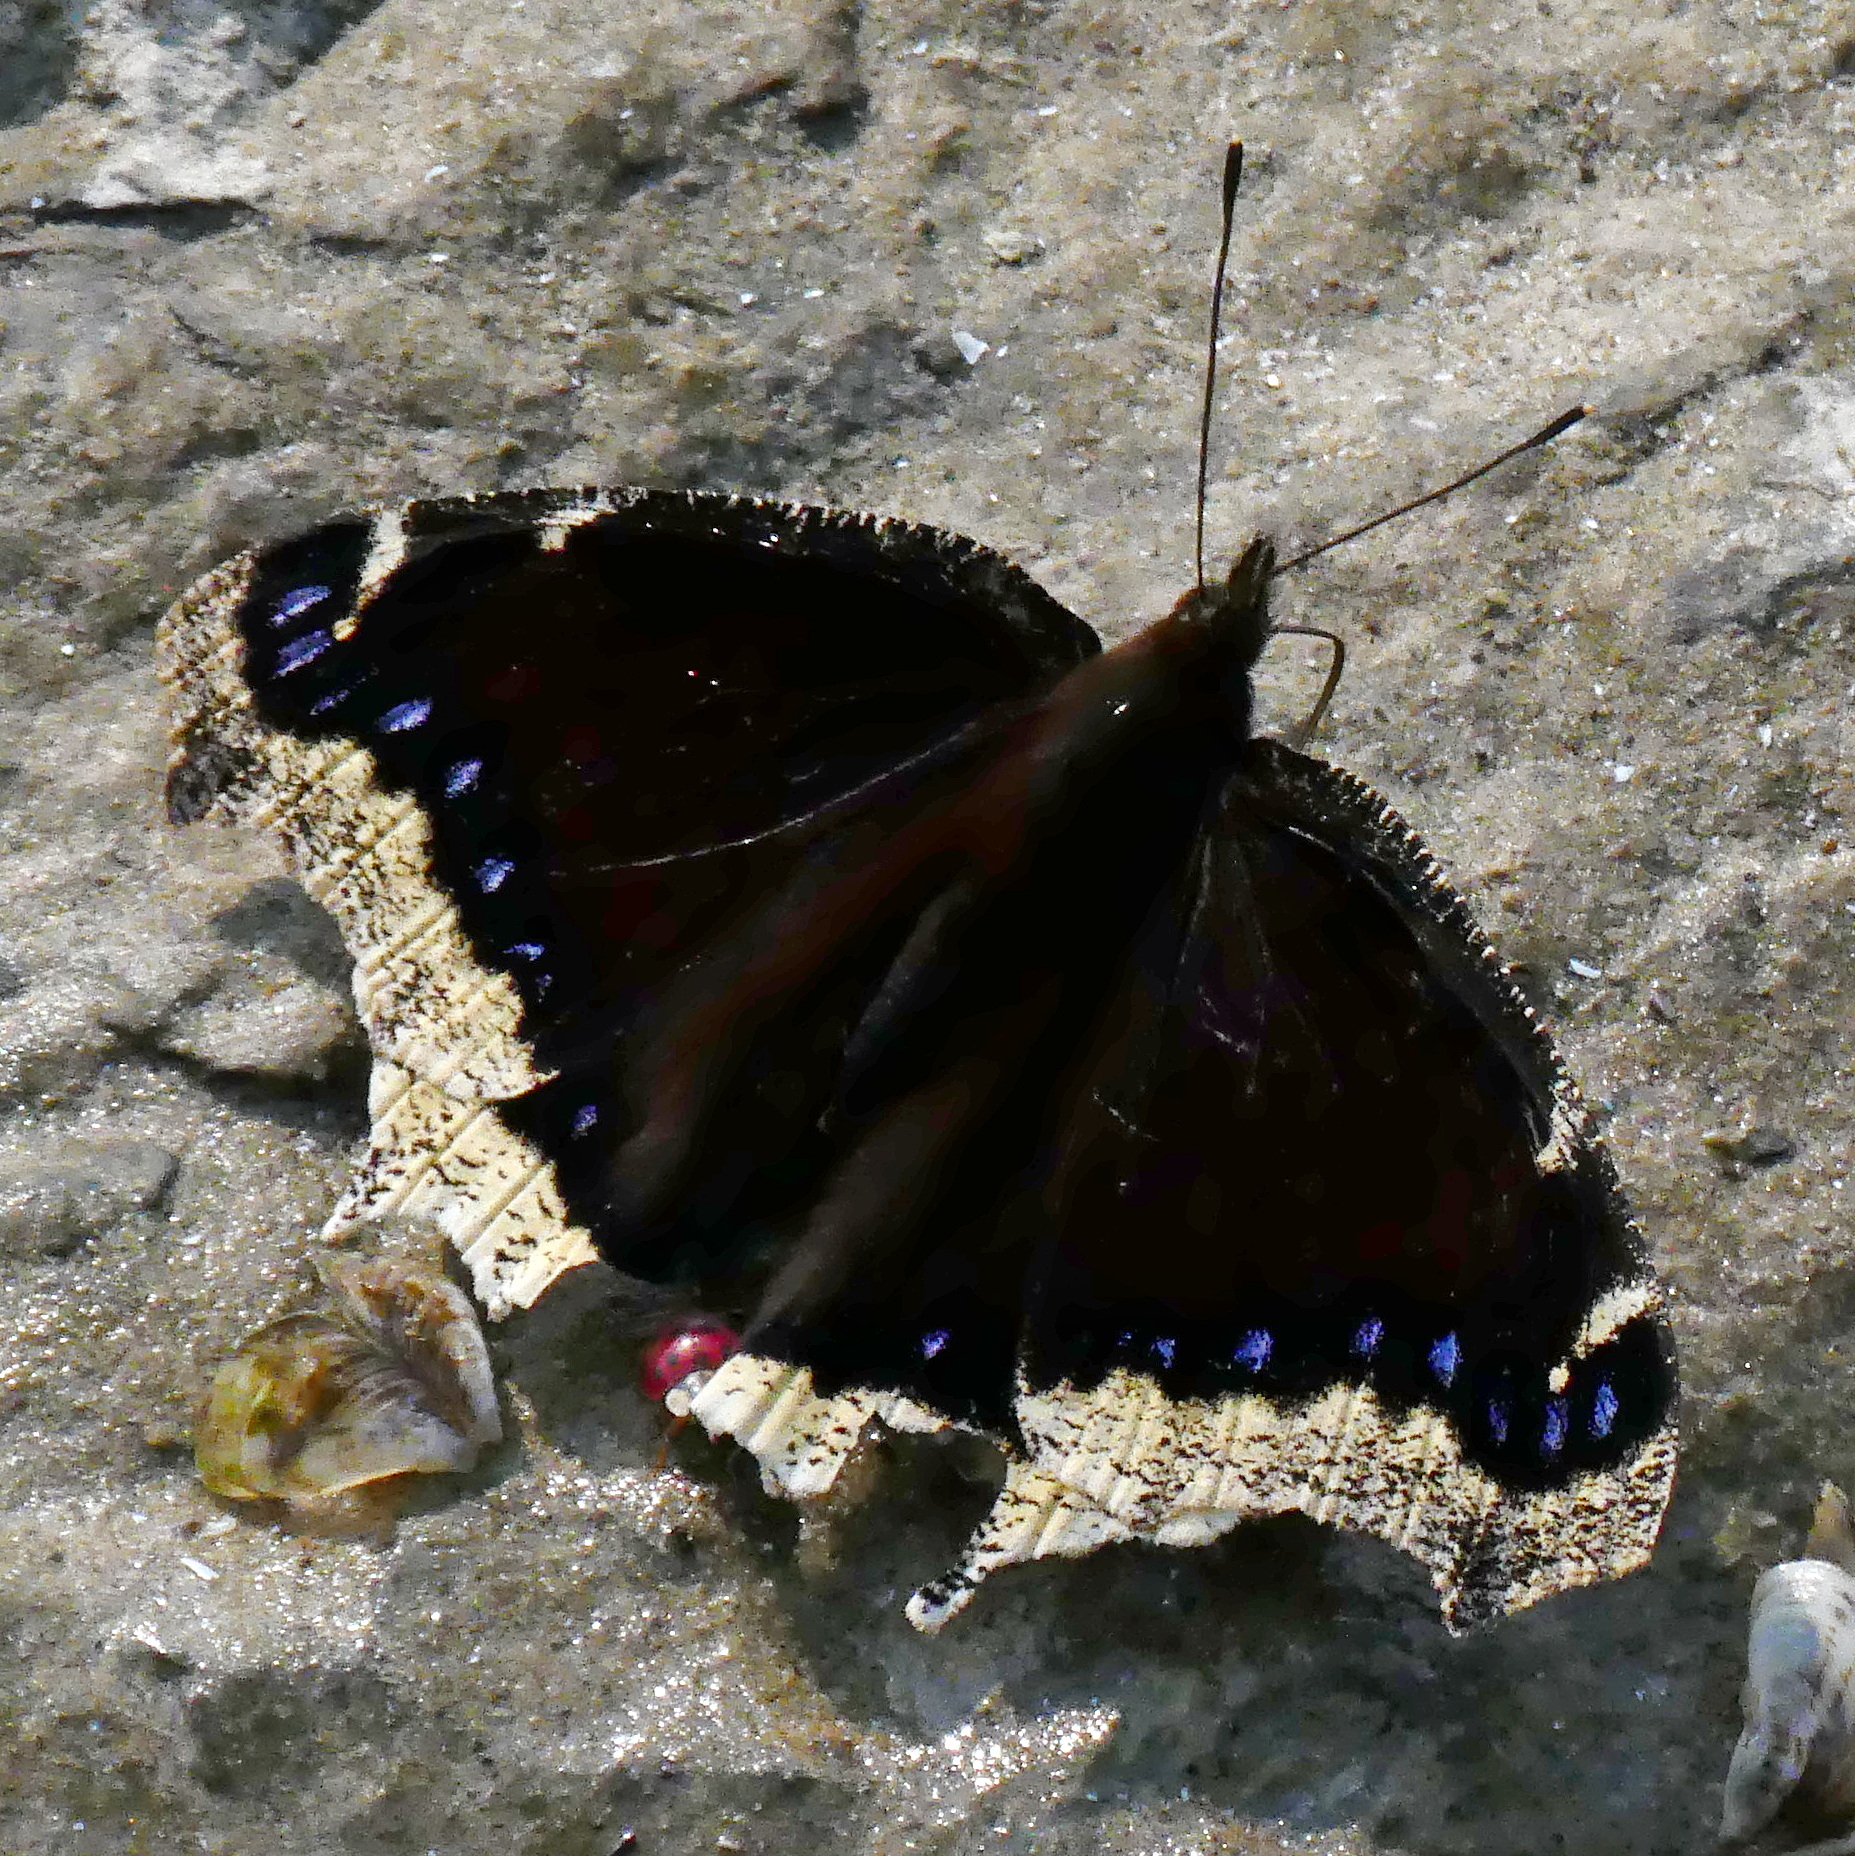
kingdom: Animalia
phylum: Arthropoda
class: Insecta
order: Lepidoptera
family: Nymphalidae
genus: Nymphalis
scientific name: Nymphalis antiopa
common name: Camberwell beauty
